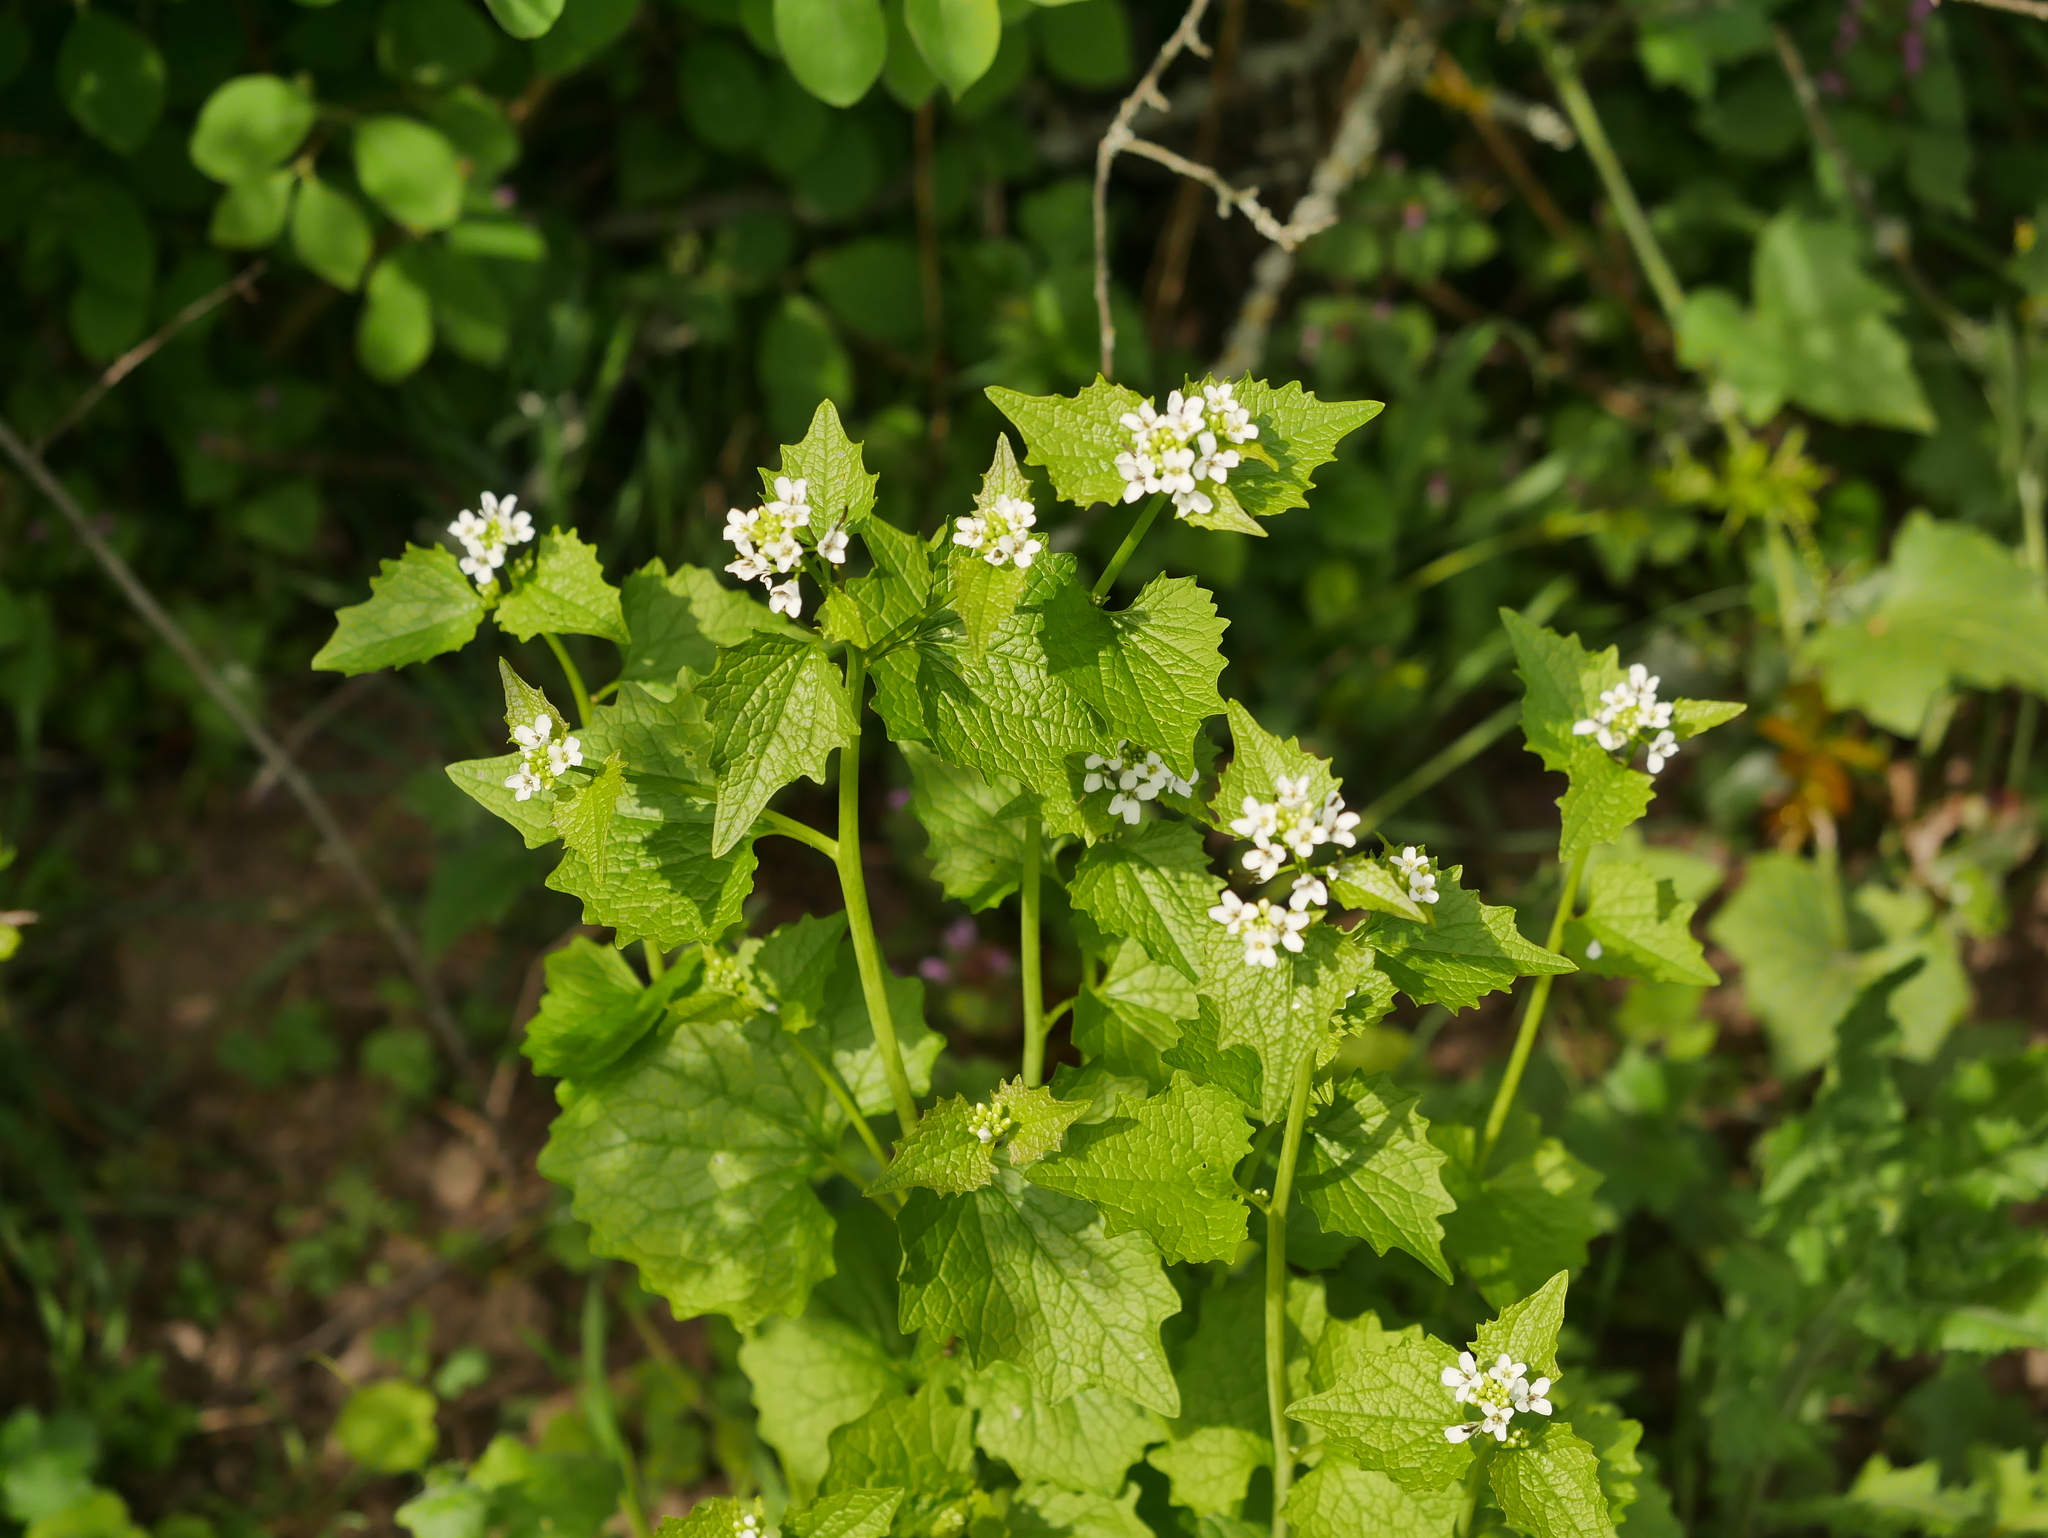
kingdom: Plantae
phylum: Tracheophyta
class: Magnoliopsida
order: Brassicales
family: Brassicaceae
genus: Alliaria
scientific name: Alliaria petiolata
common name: Garlic mustard
